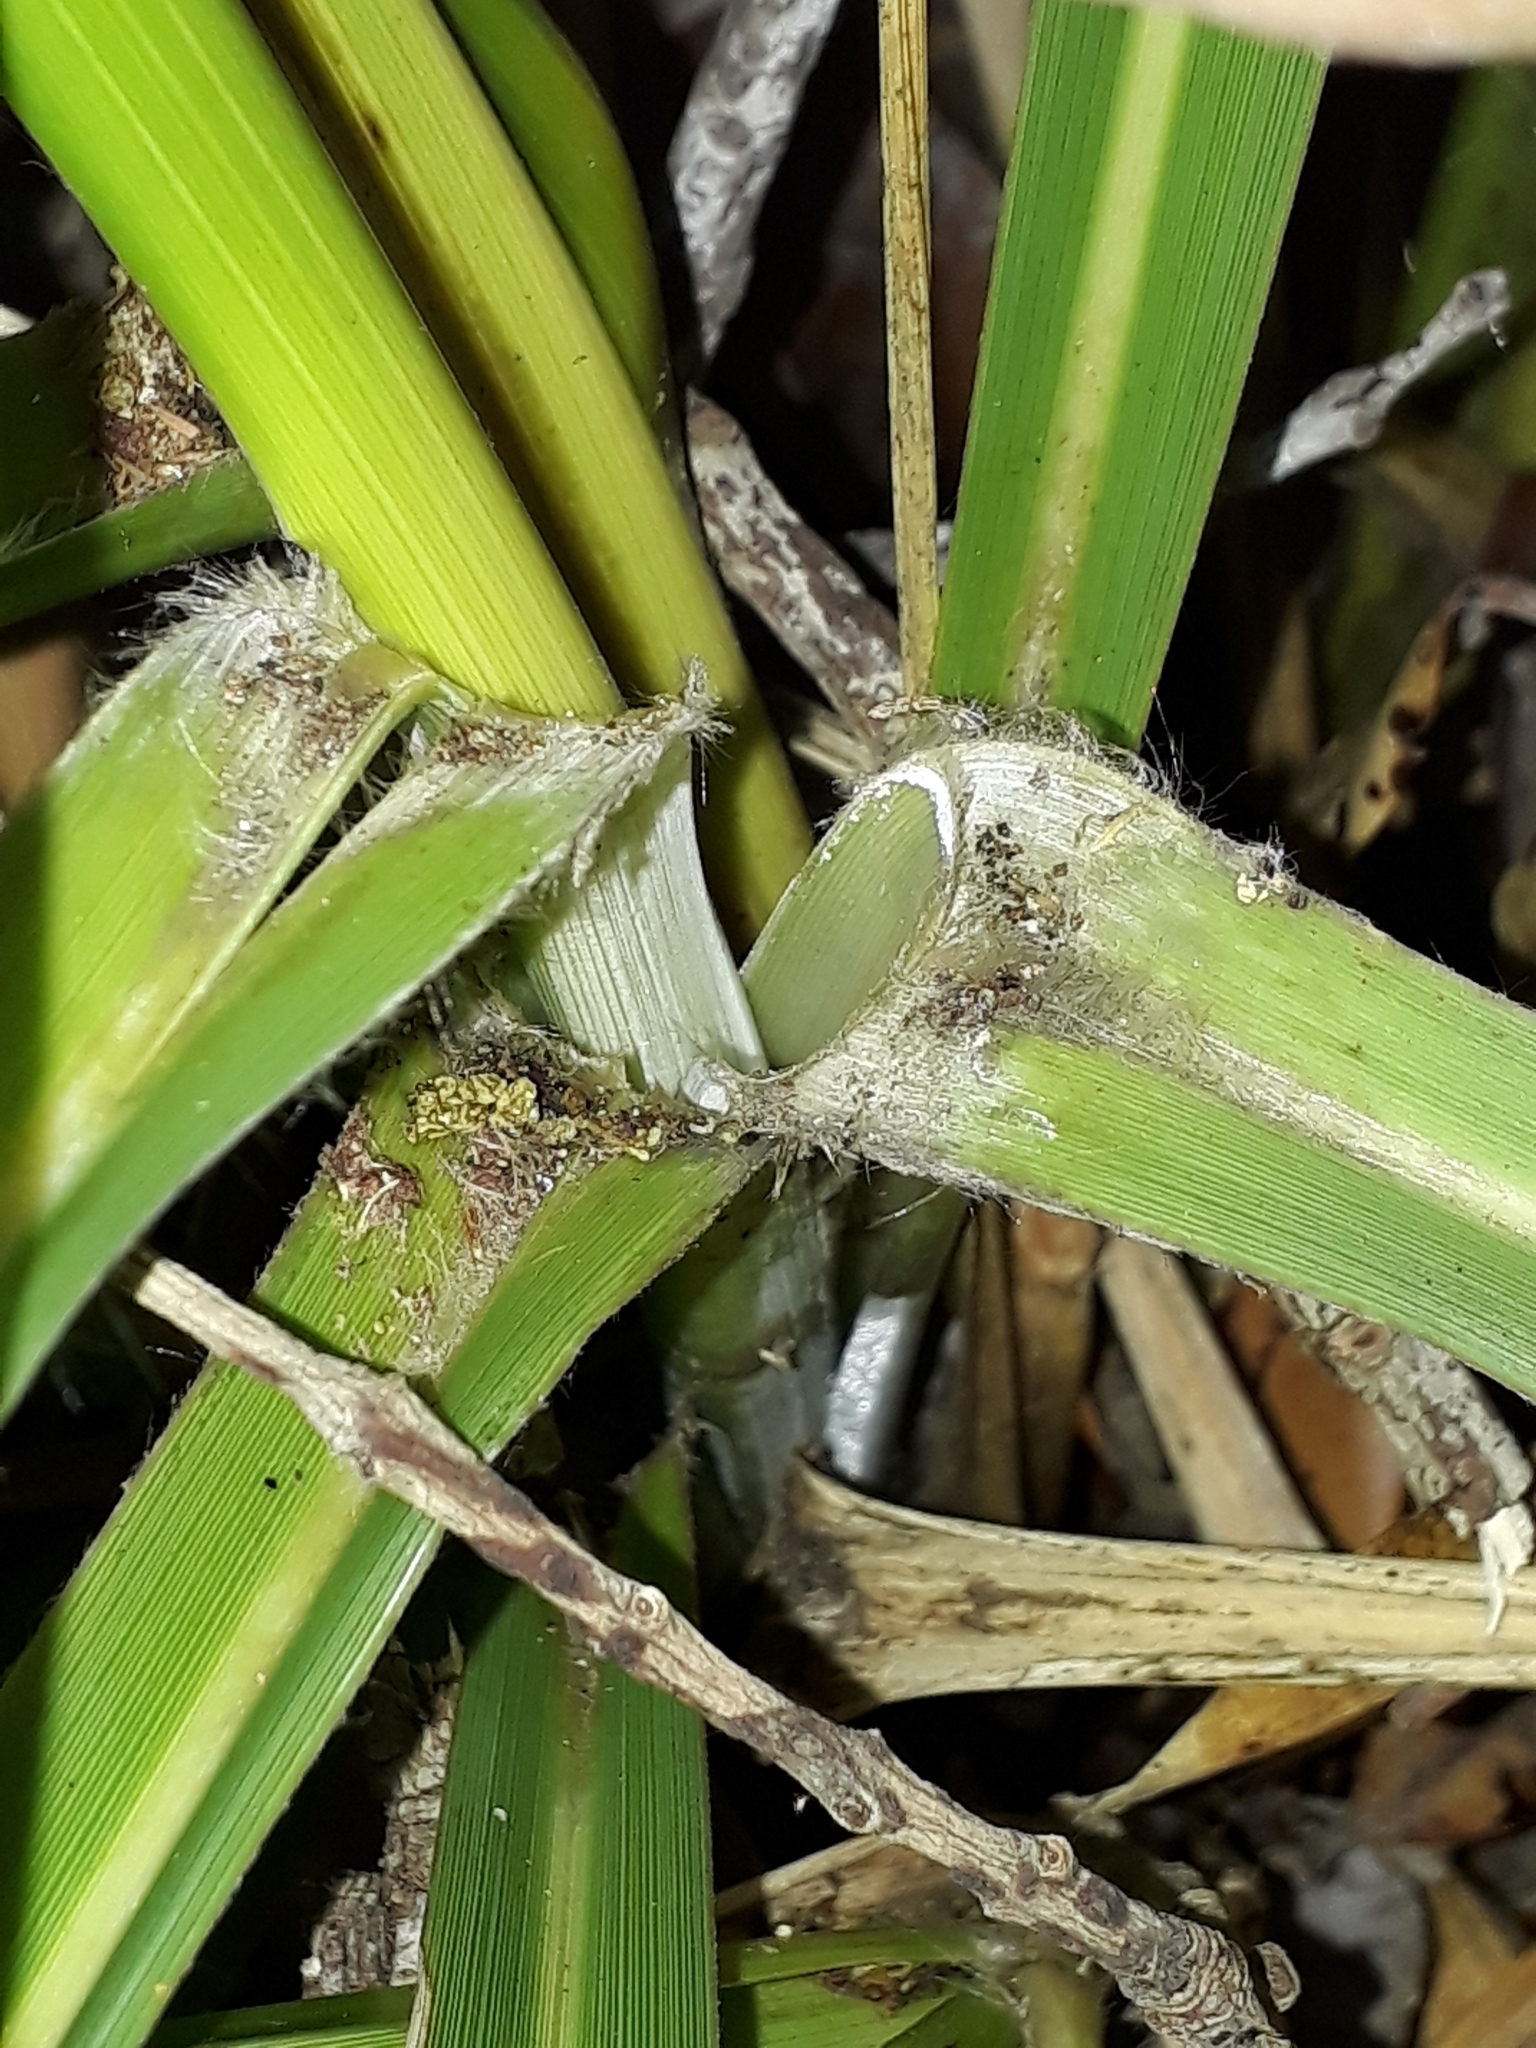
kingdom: Plantae
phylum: Tracheophyta
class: Liliopsida
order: Poales
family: Poaceae
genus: Austroderia
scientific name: Austroderia splendens
